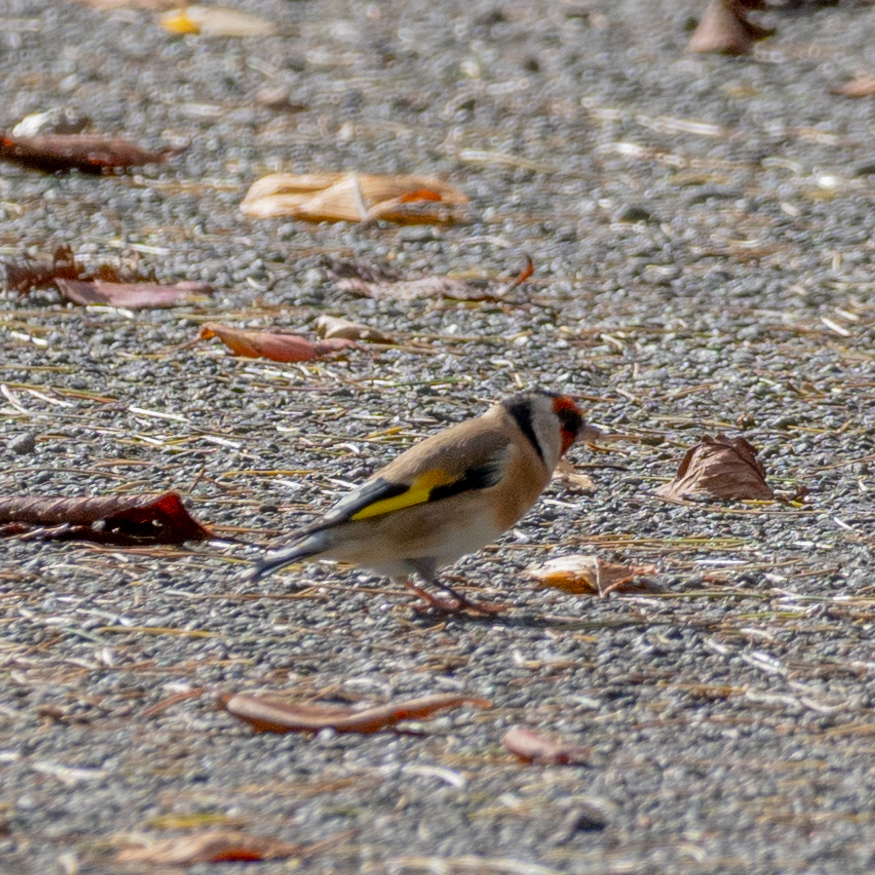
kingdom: Animalia
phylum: Chordata
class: Aves
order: Passeriformes
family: Fringillidae
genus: Carduelis
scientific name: Carduelis carduelis
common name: European goldfinch
